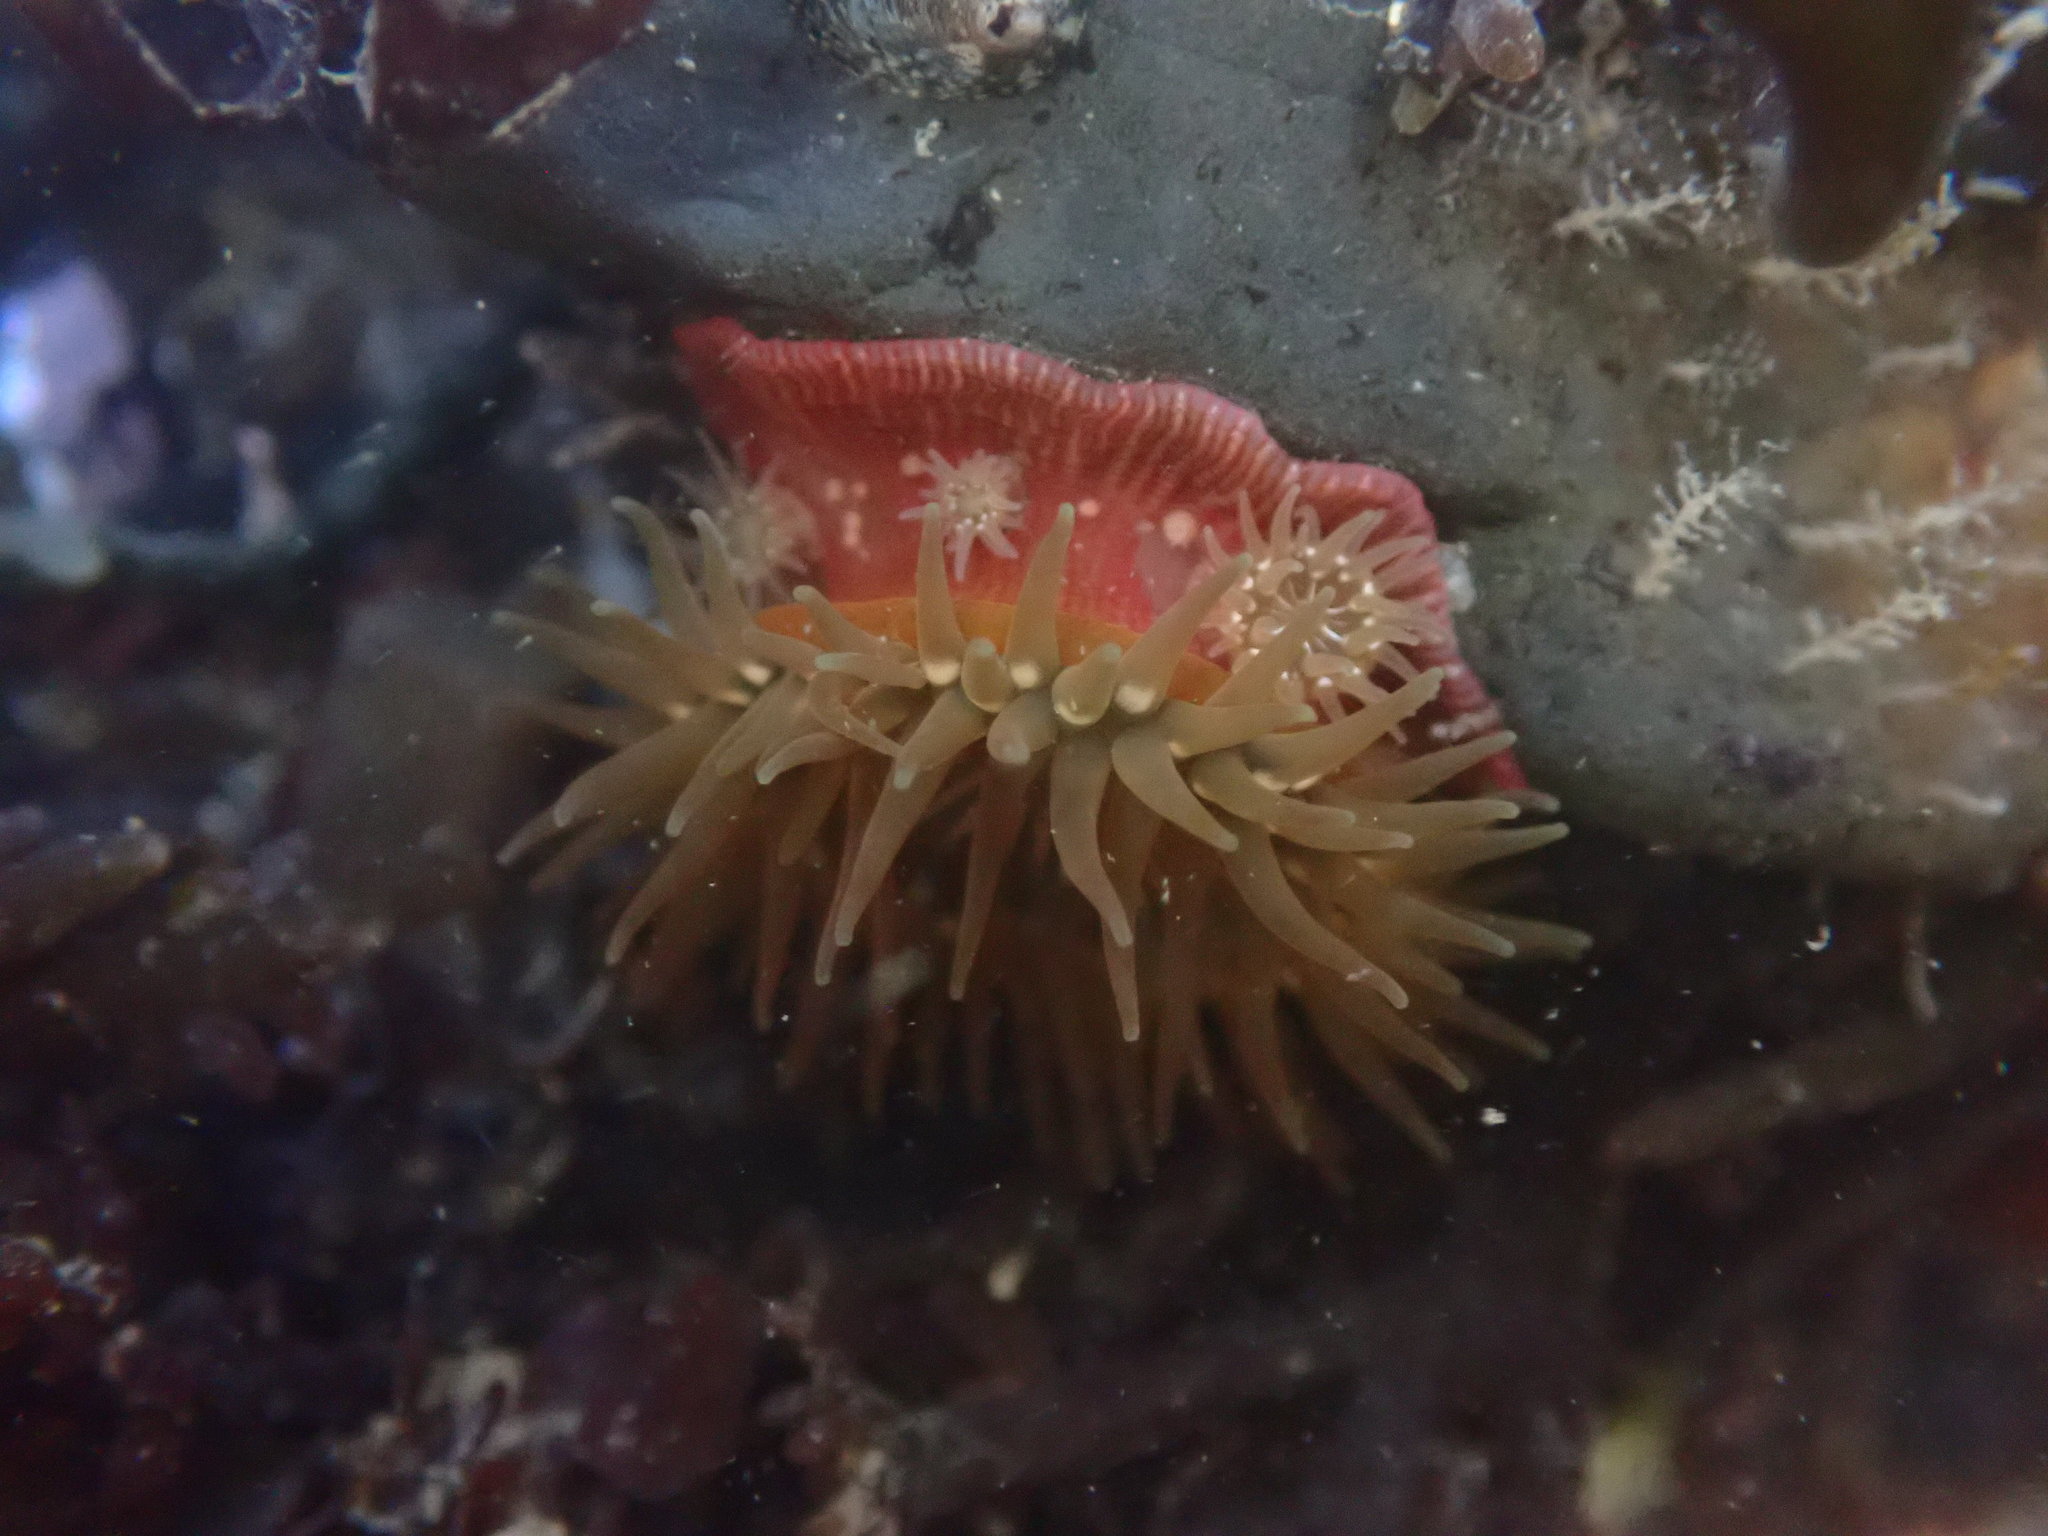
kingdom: Animalia
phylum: Cnidaria
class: Anthozoa
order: Actiniaria
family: Actiniidae
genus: Epiactis
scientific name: Epiactis prolifera
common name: Brooding anemone
